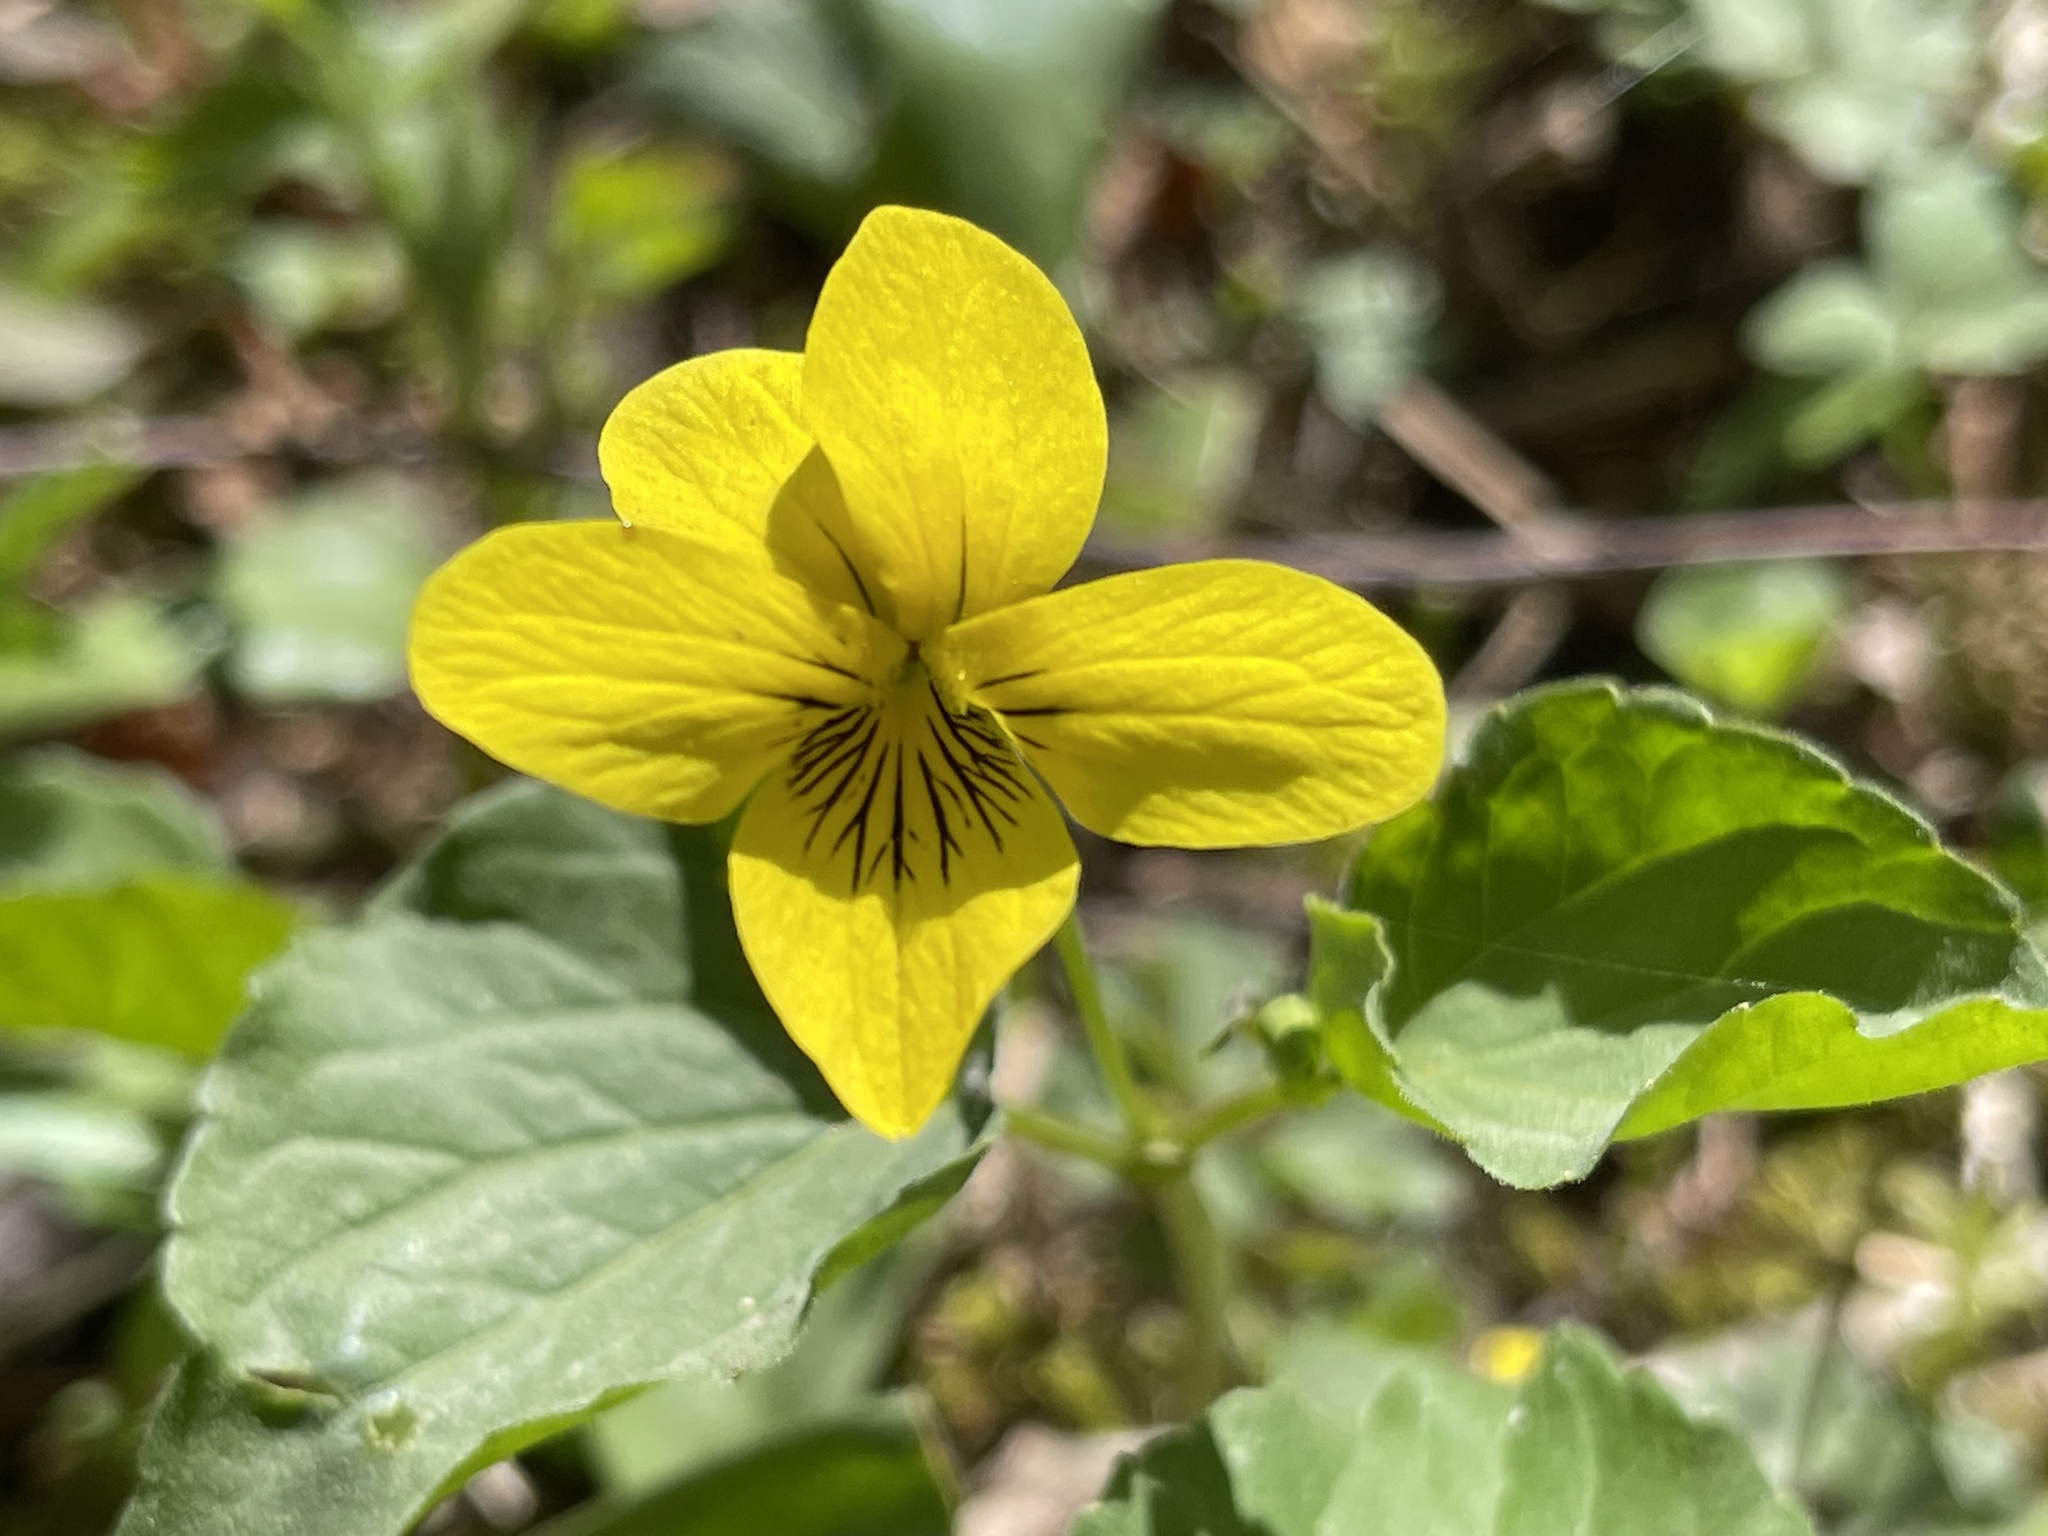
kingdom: Plantae
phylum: Tracheophyta
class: Magnoliopsida
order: Malpighiales
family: Violaceae
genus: Viola
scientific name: Viola glabella
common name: Stream violet
